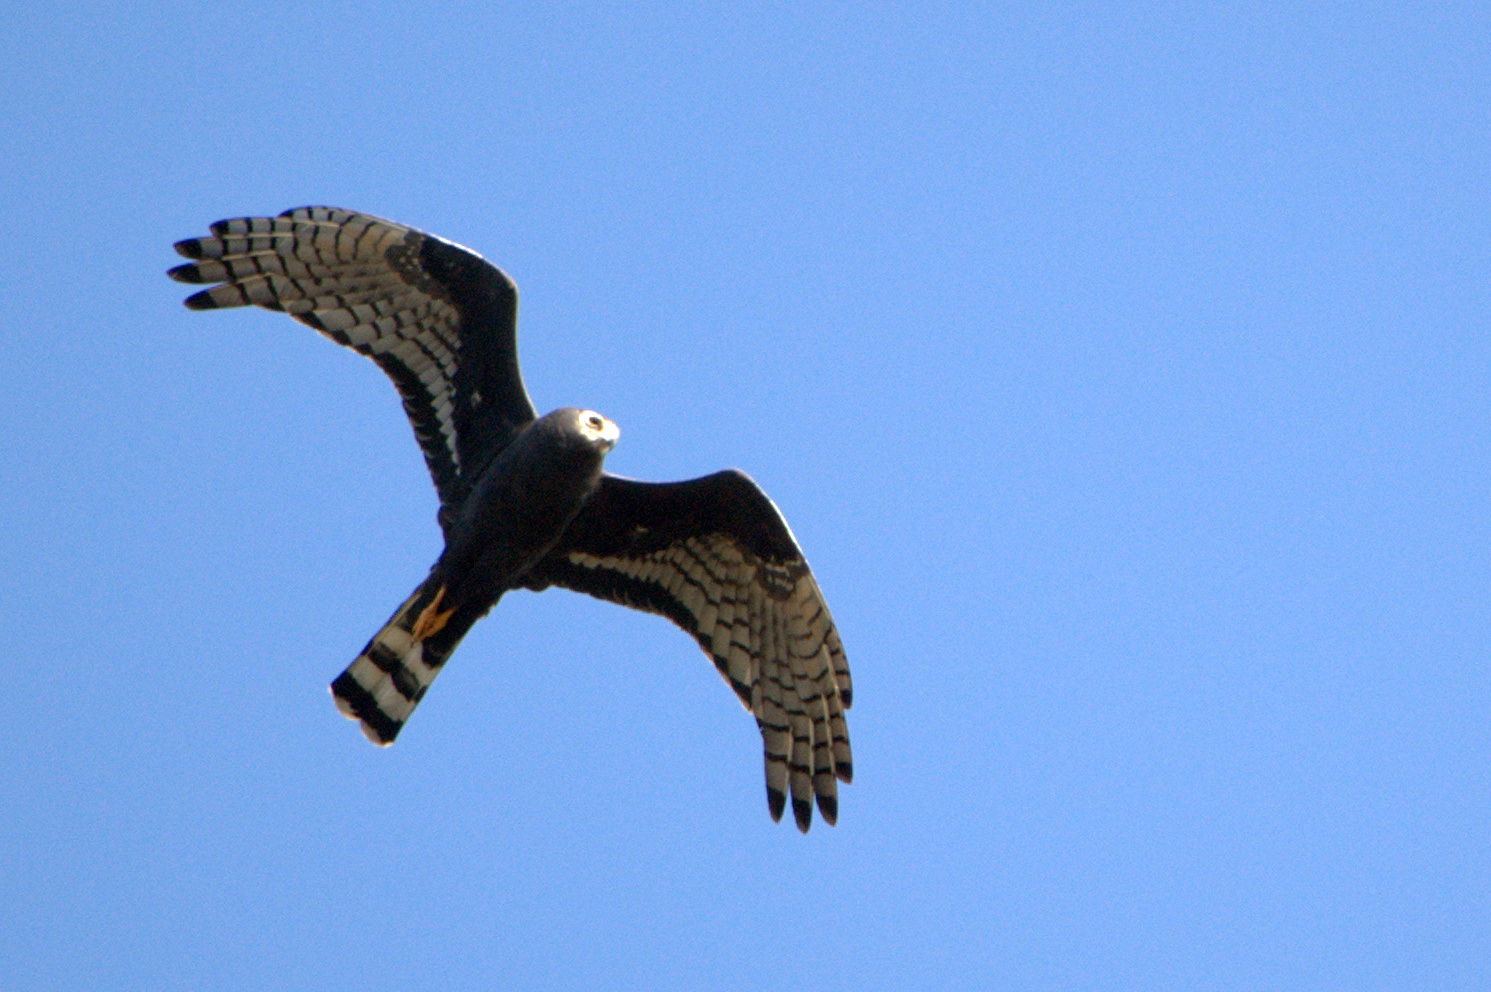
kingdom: Animalia
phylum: Chordata
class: Aves
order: Accipitriformes
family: Accipitridae
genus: Circus
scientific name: Circus buffoni
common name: Long-winged harrier
